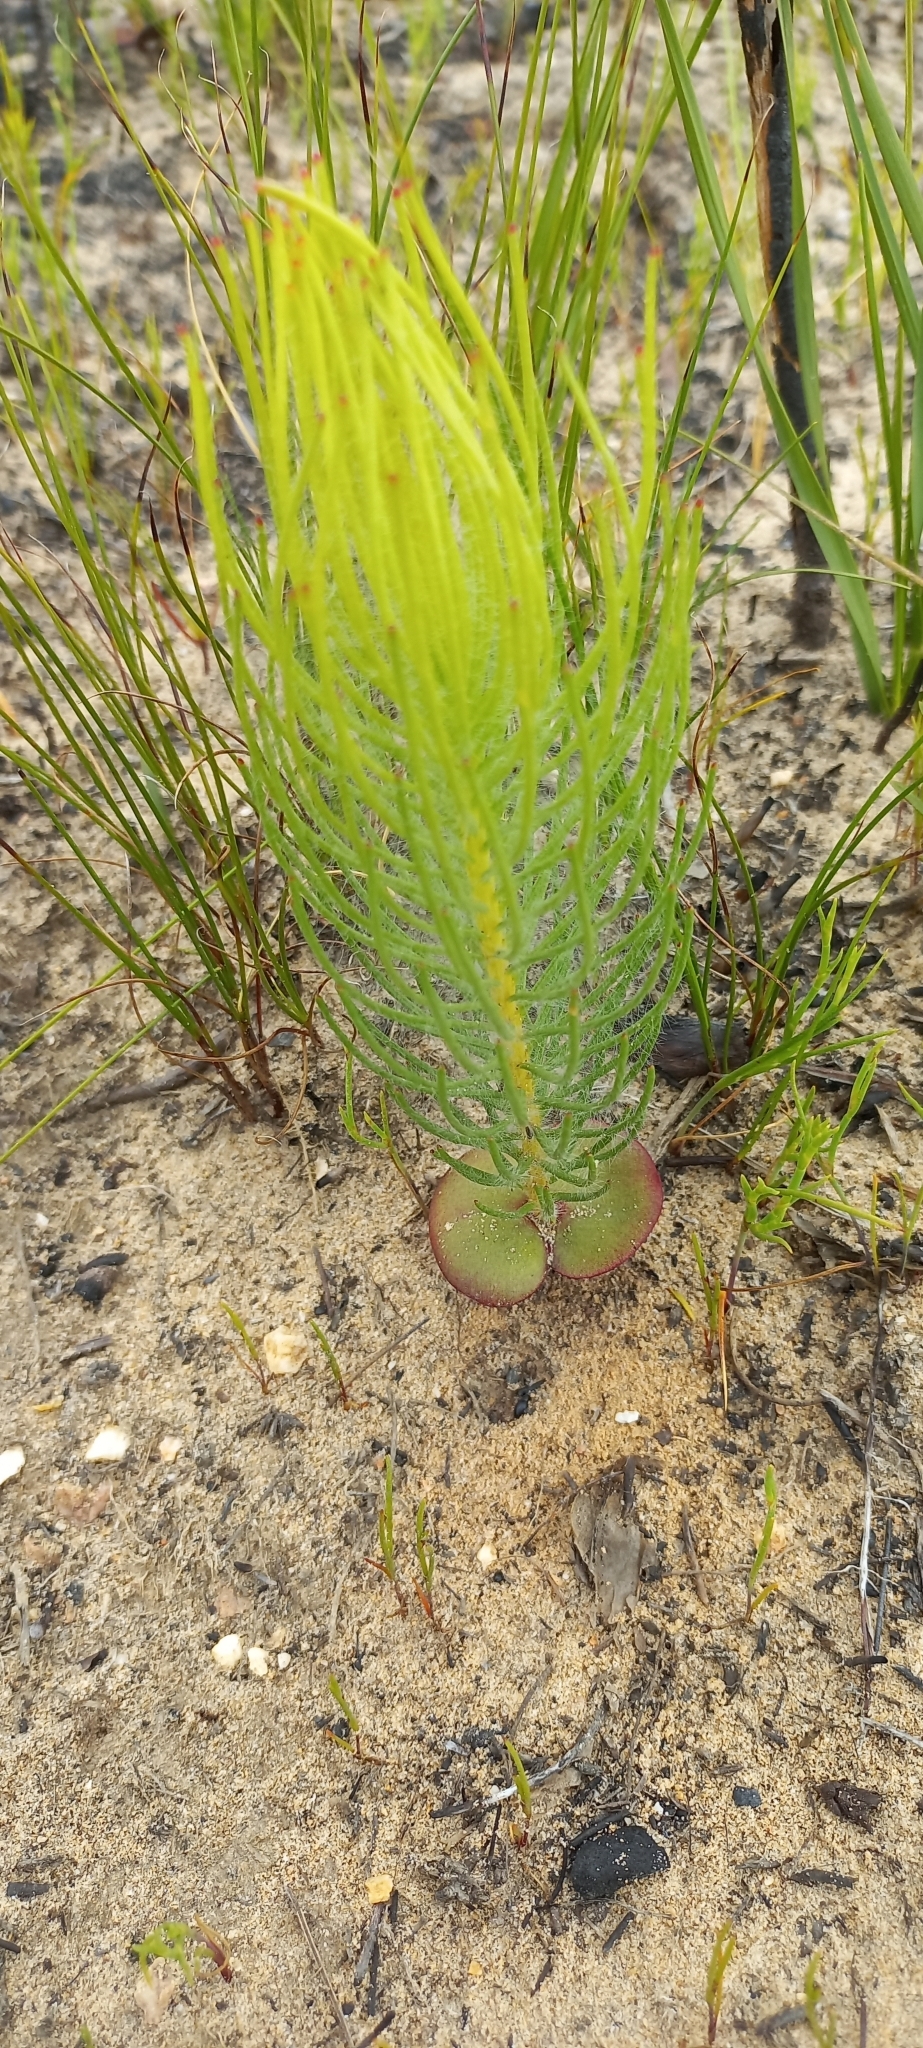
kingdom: Plantae
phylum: Tracheophyta
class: Magnoliopsida
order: Proteales
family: Proteaceae
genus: Leucadendron
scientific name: Leucadendron platyspermum
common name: Plate-seed conebush
